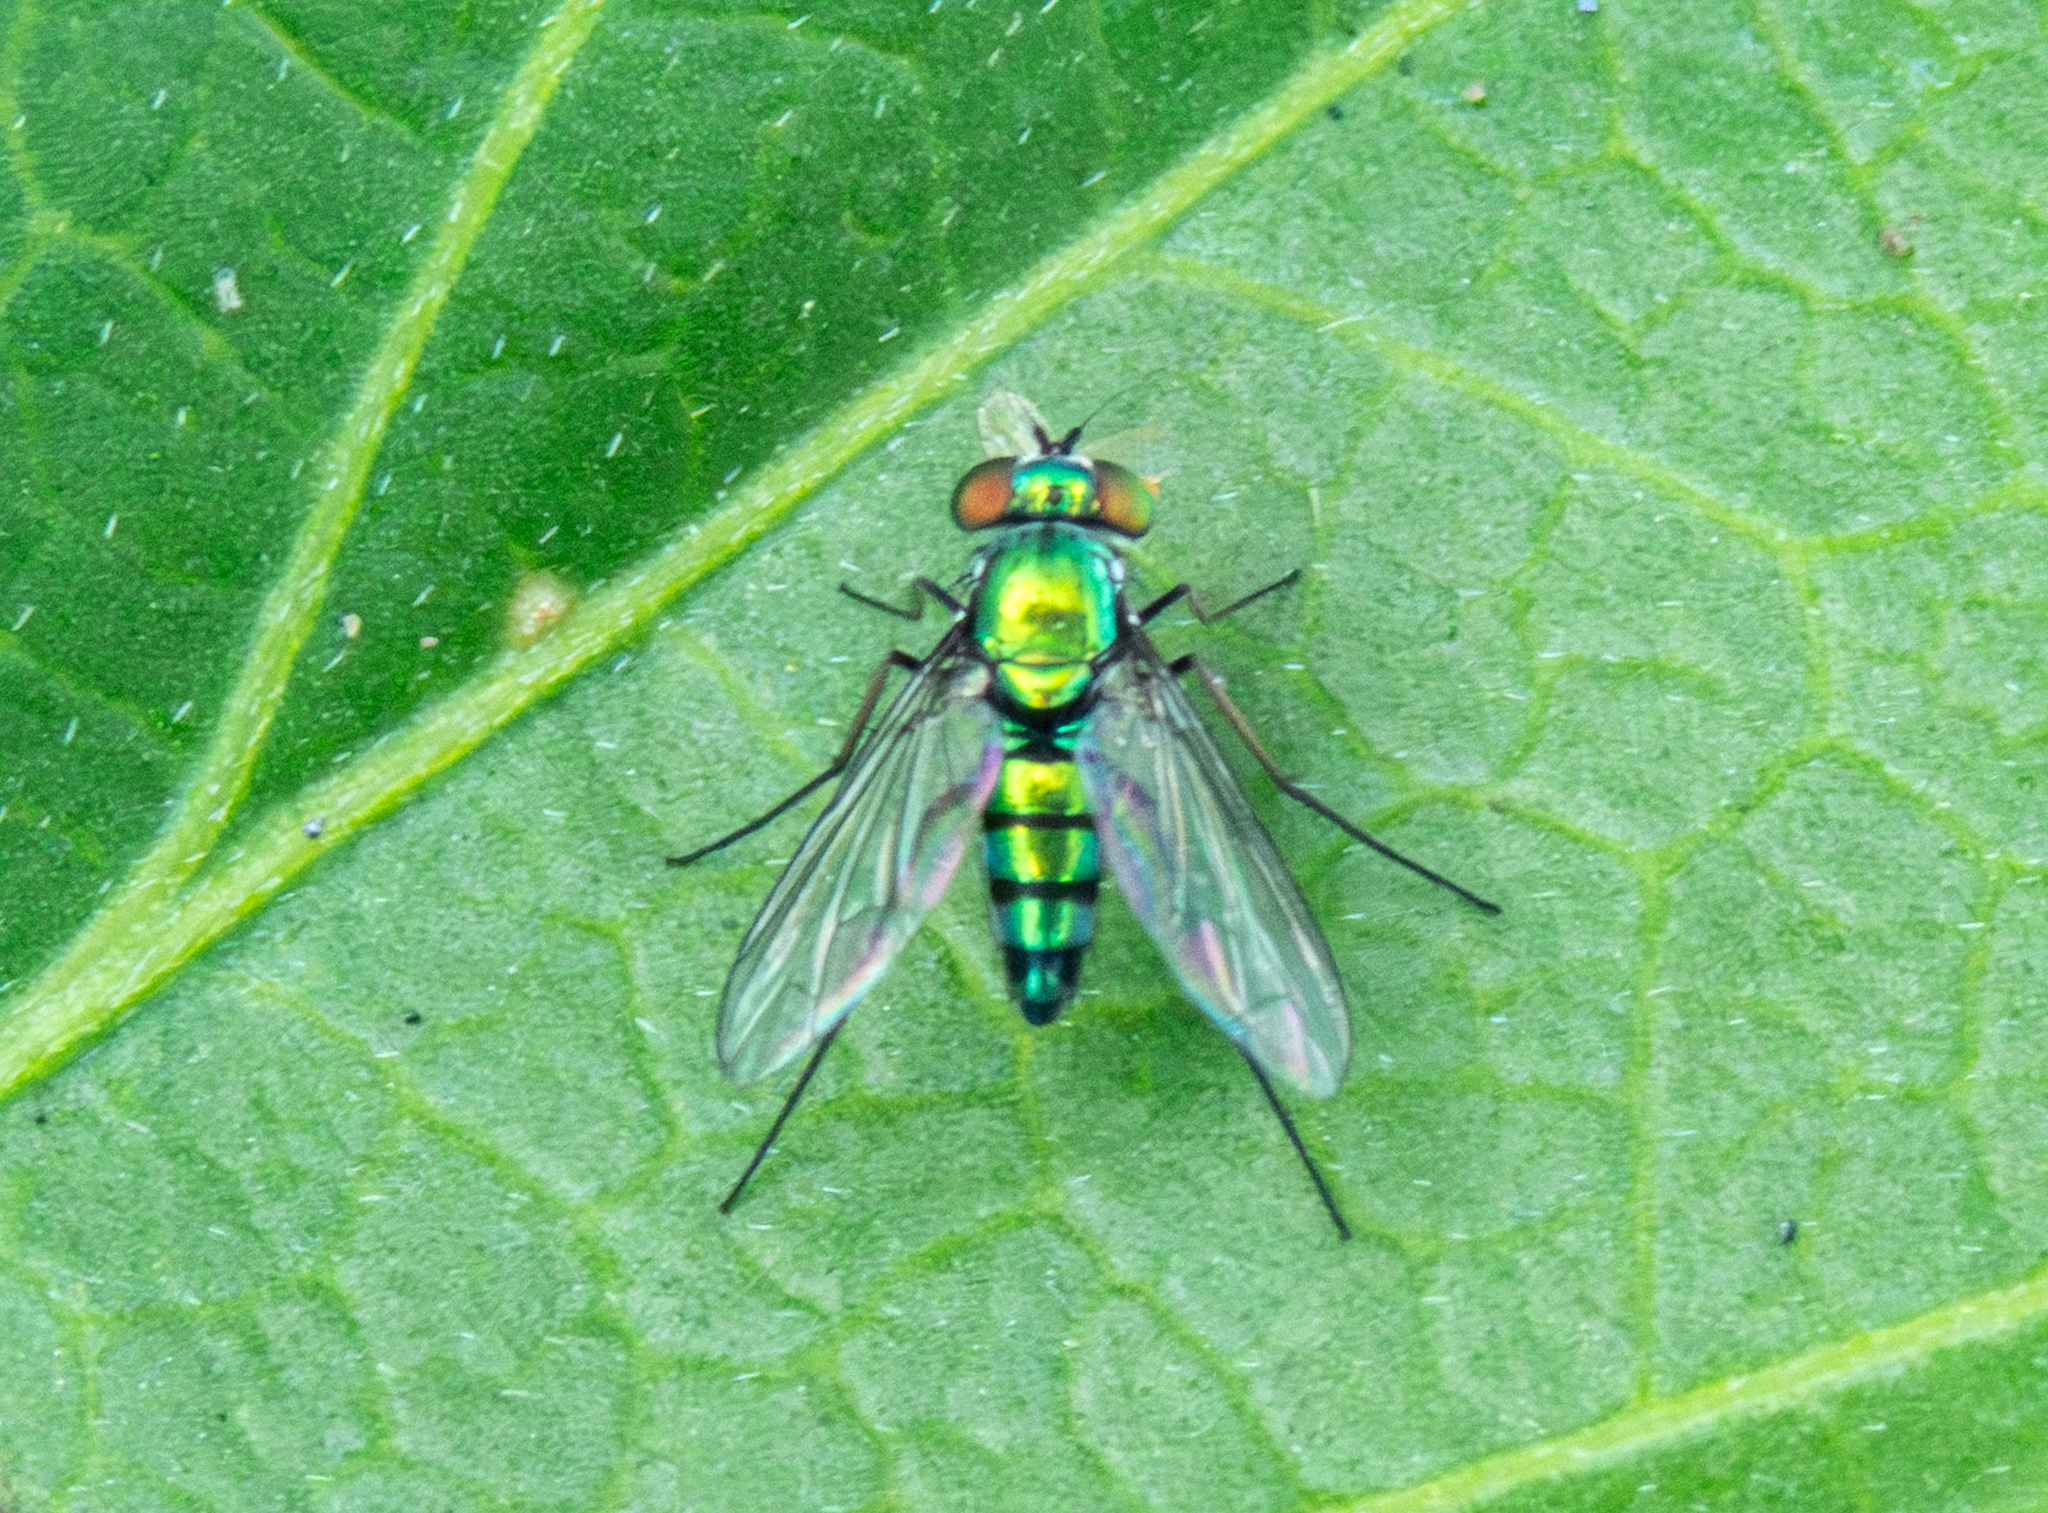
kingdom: Animalia
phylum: Arthropoda
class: Insecta
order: Diptera
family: Dolichopodidae
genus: Condylostylus
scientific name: Condylostylus longicornis
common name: Long-legged fly
